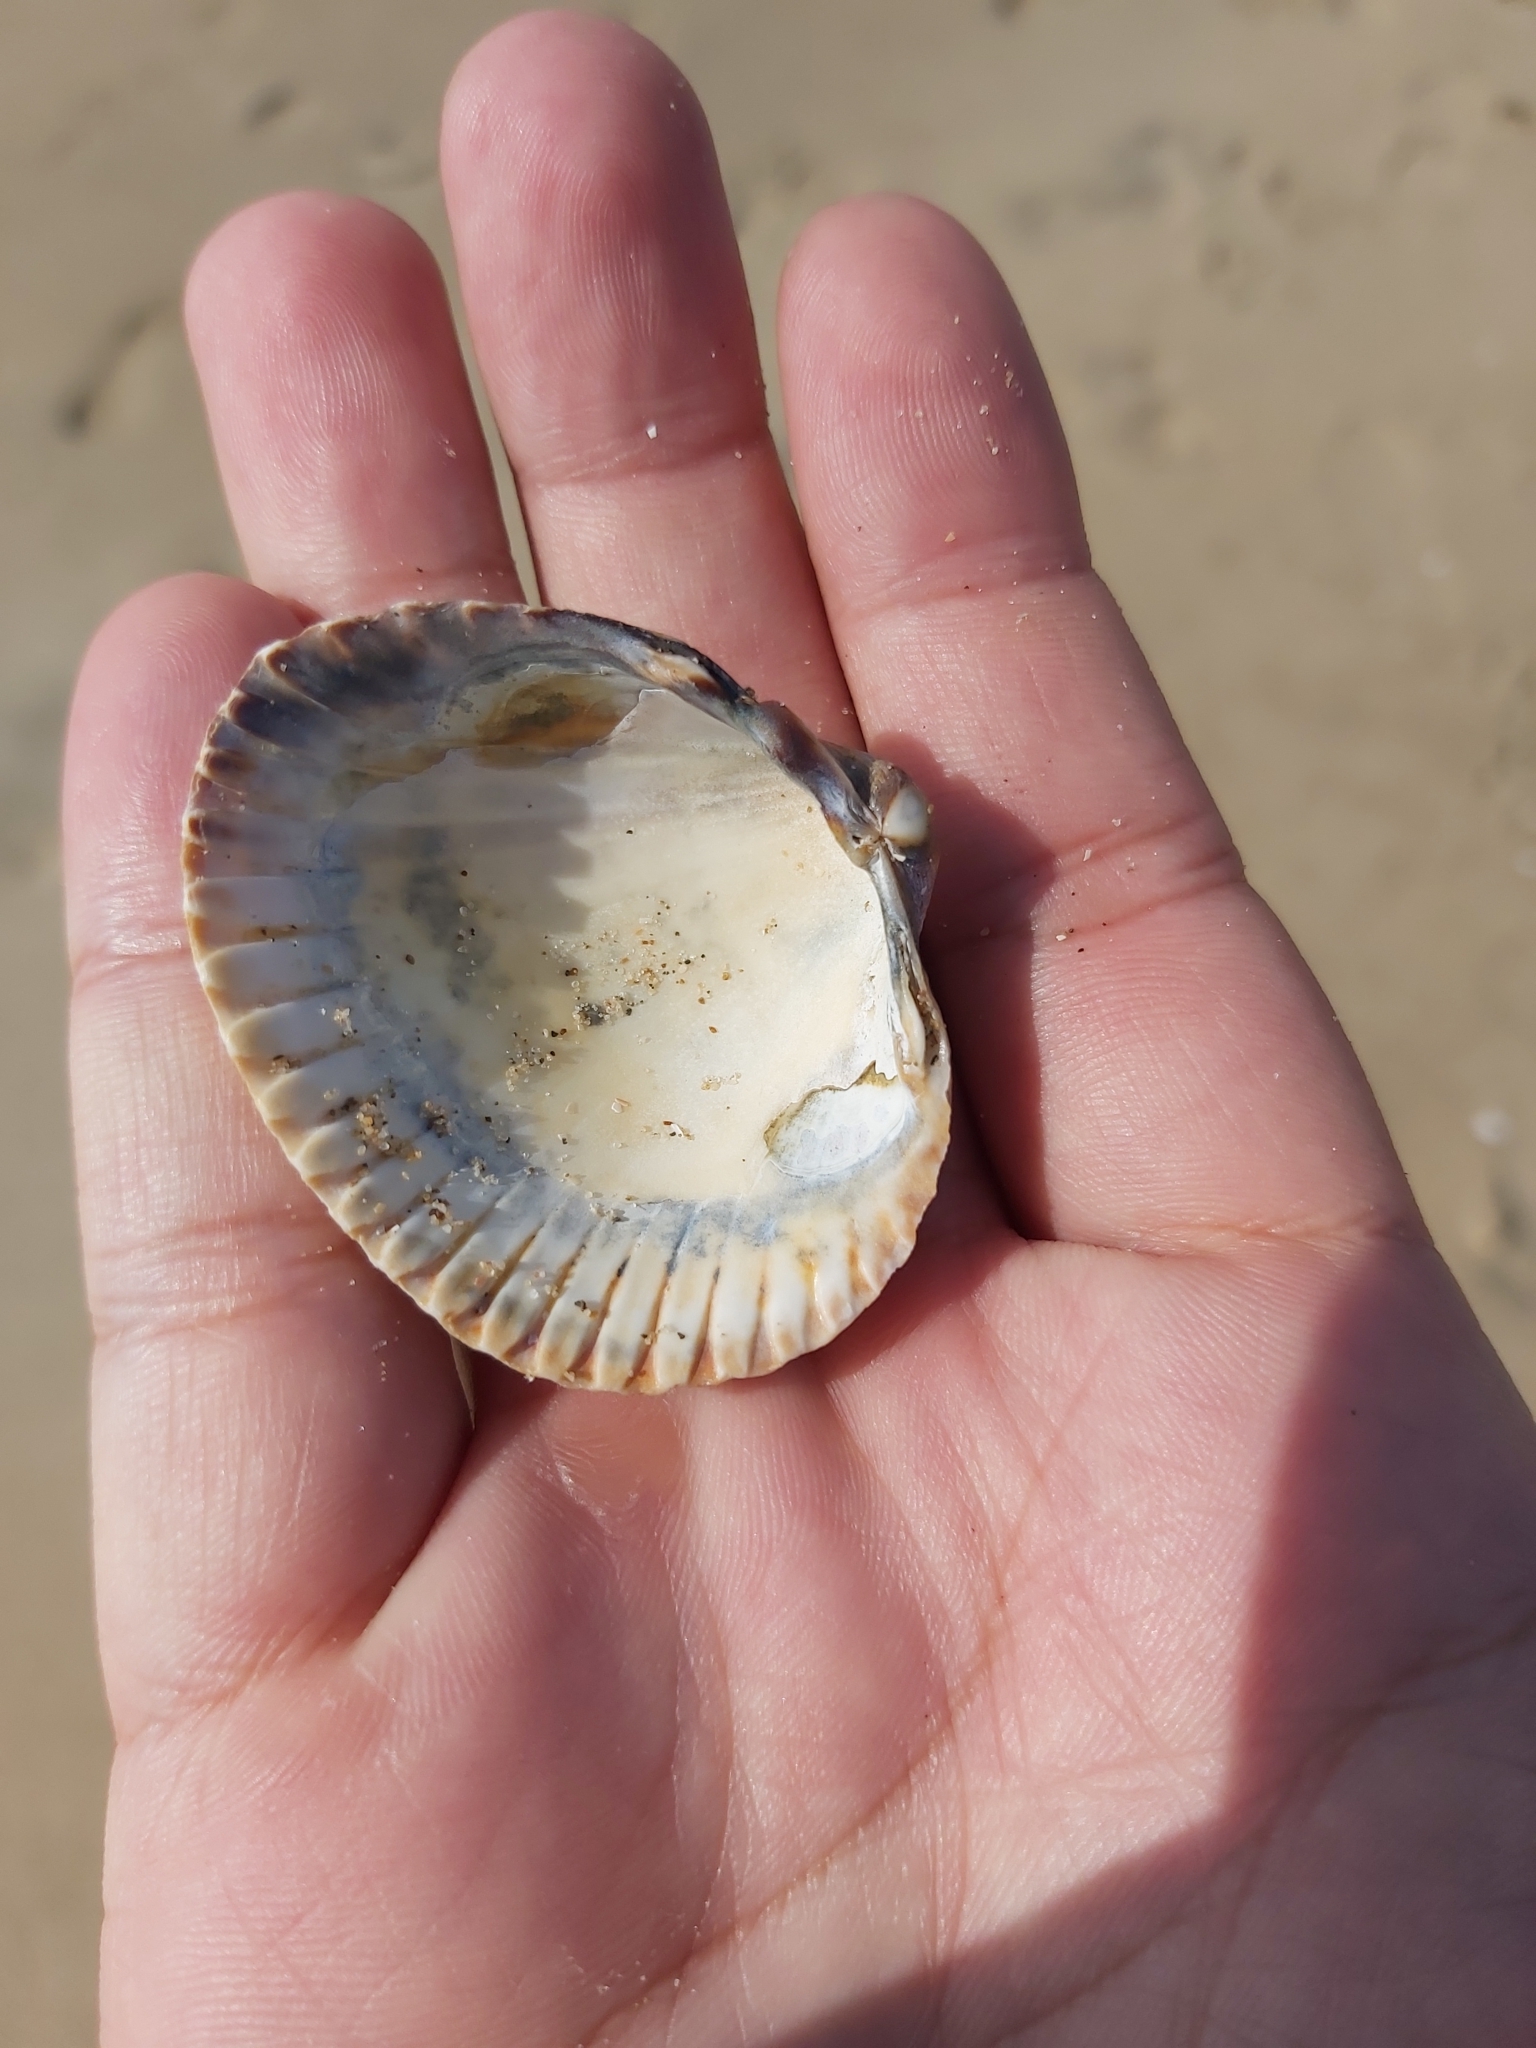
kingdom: Animalia
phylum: Mollusca
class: Bivalvia
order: Cardiida
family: Cardiidae
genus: Cerastoderma
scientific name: Cerastoderma edule
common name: Common cockle
